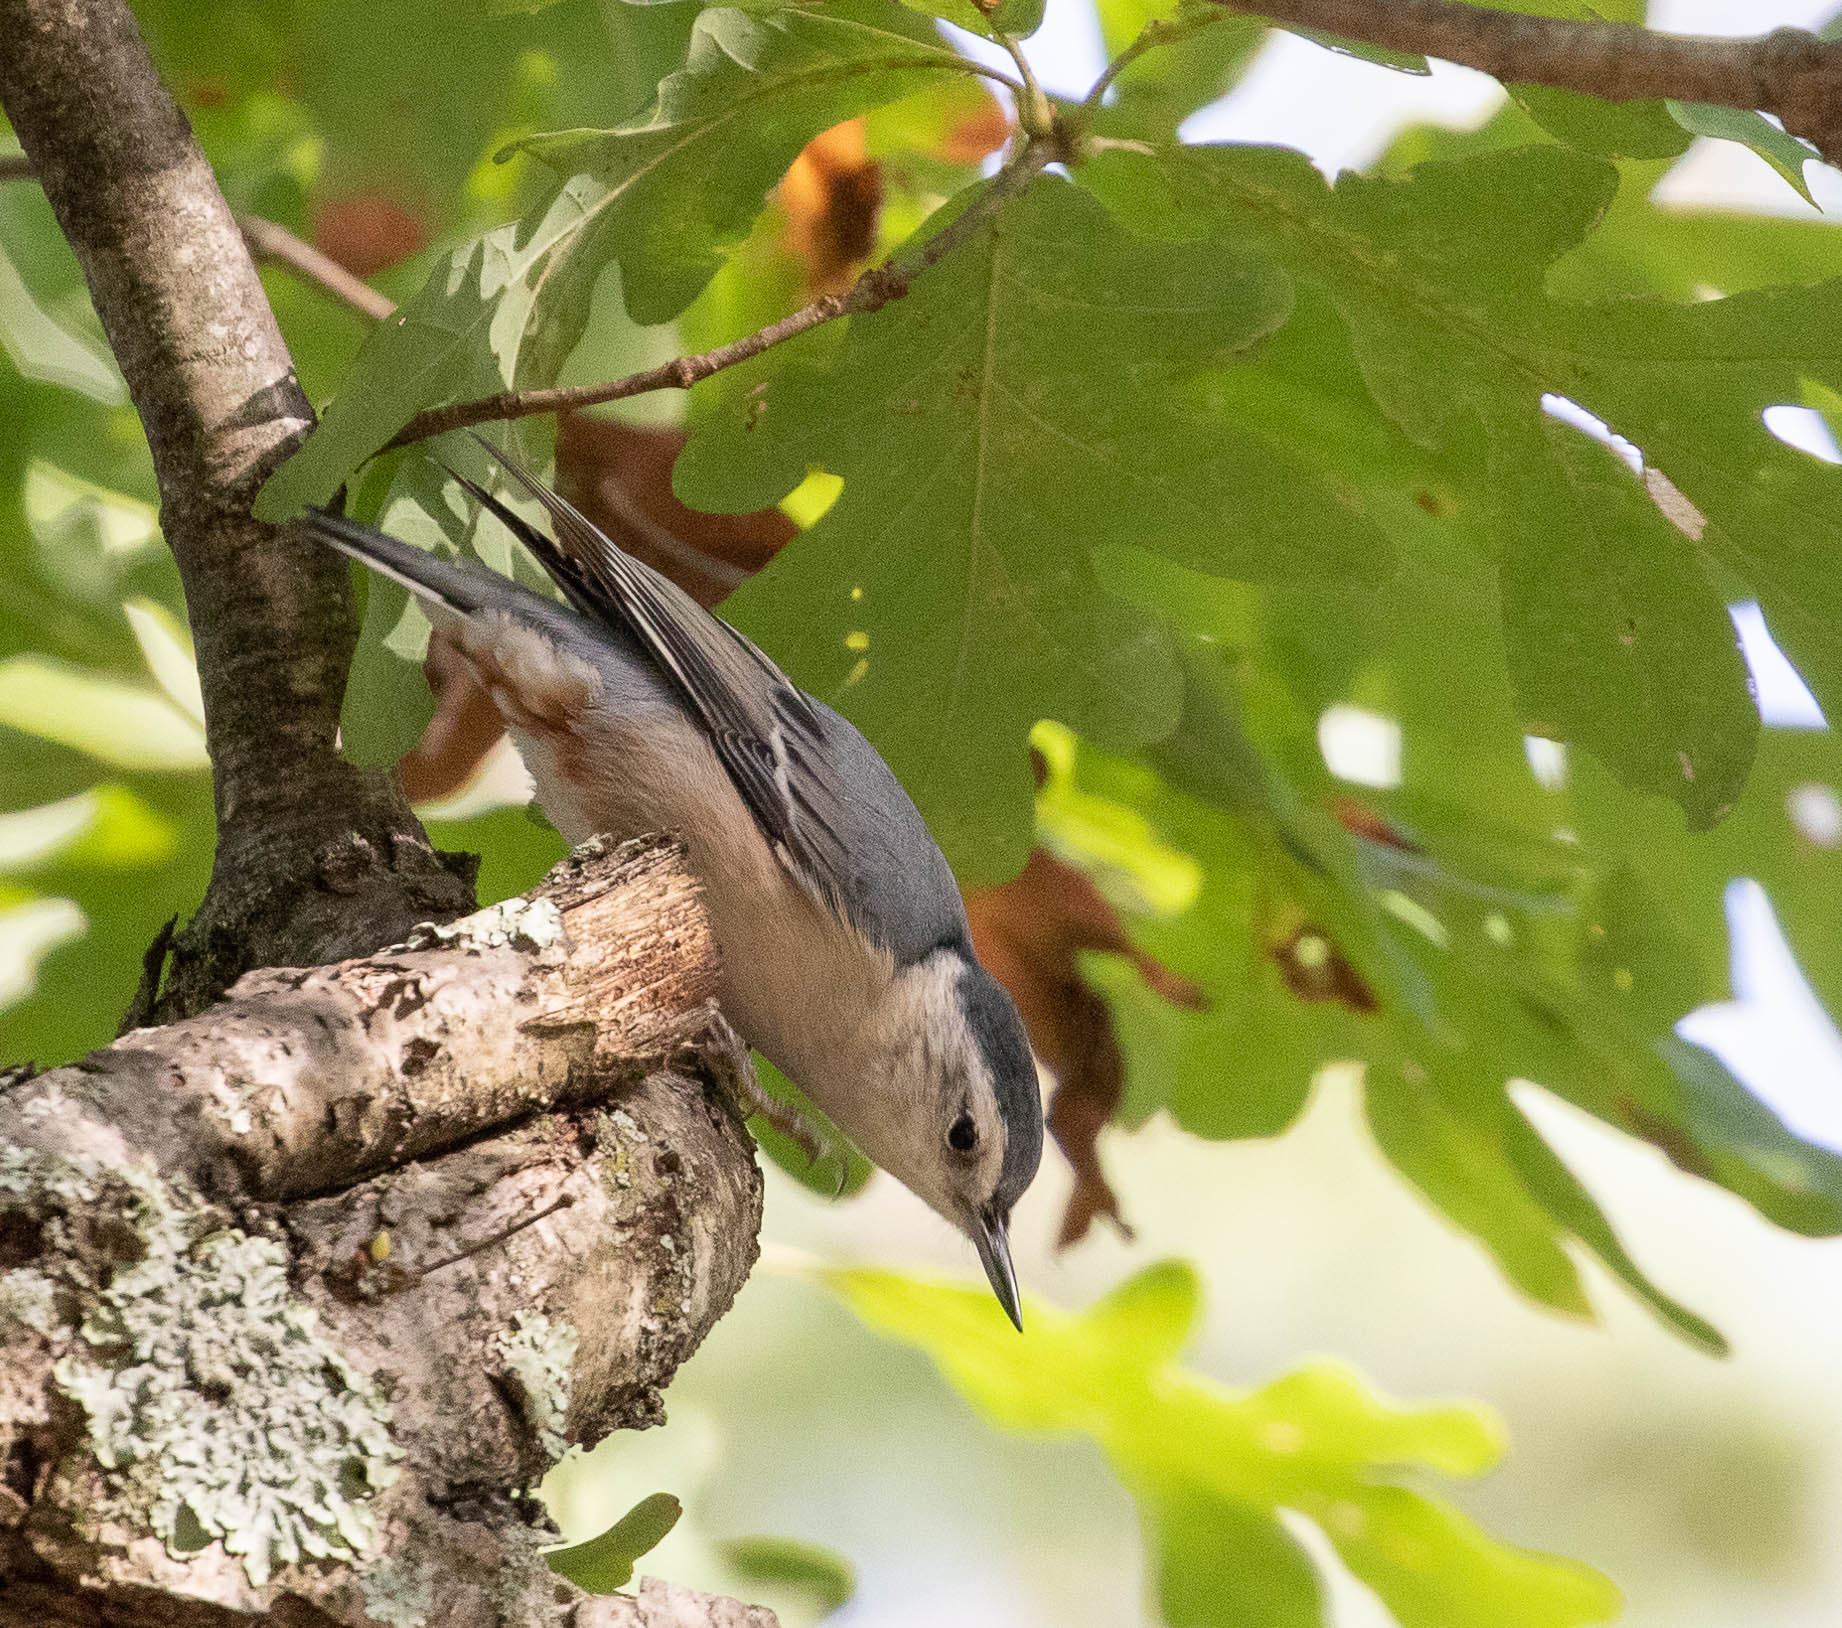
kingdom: Animalia
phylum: Chordata
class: Aves
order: Passeriformes
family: Sittidae
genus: Sitta
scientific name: Sitta carolinensis
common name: White-breasted nuthatch
